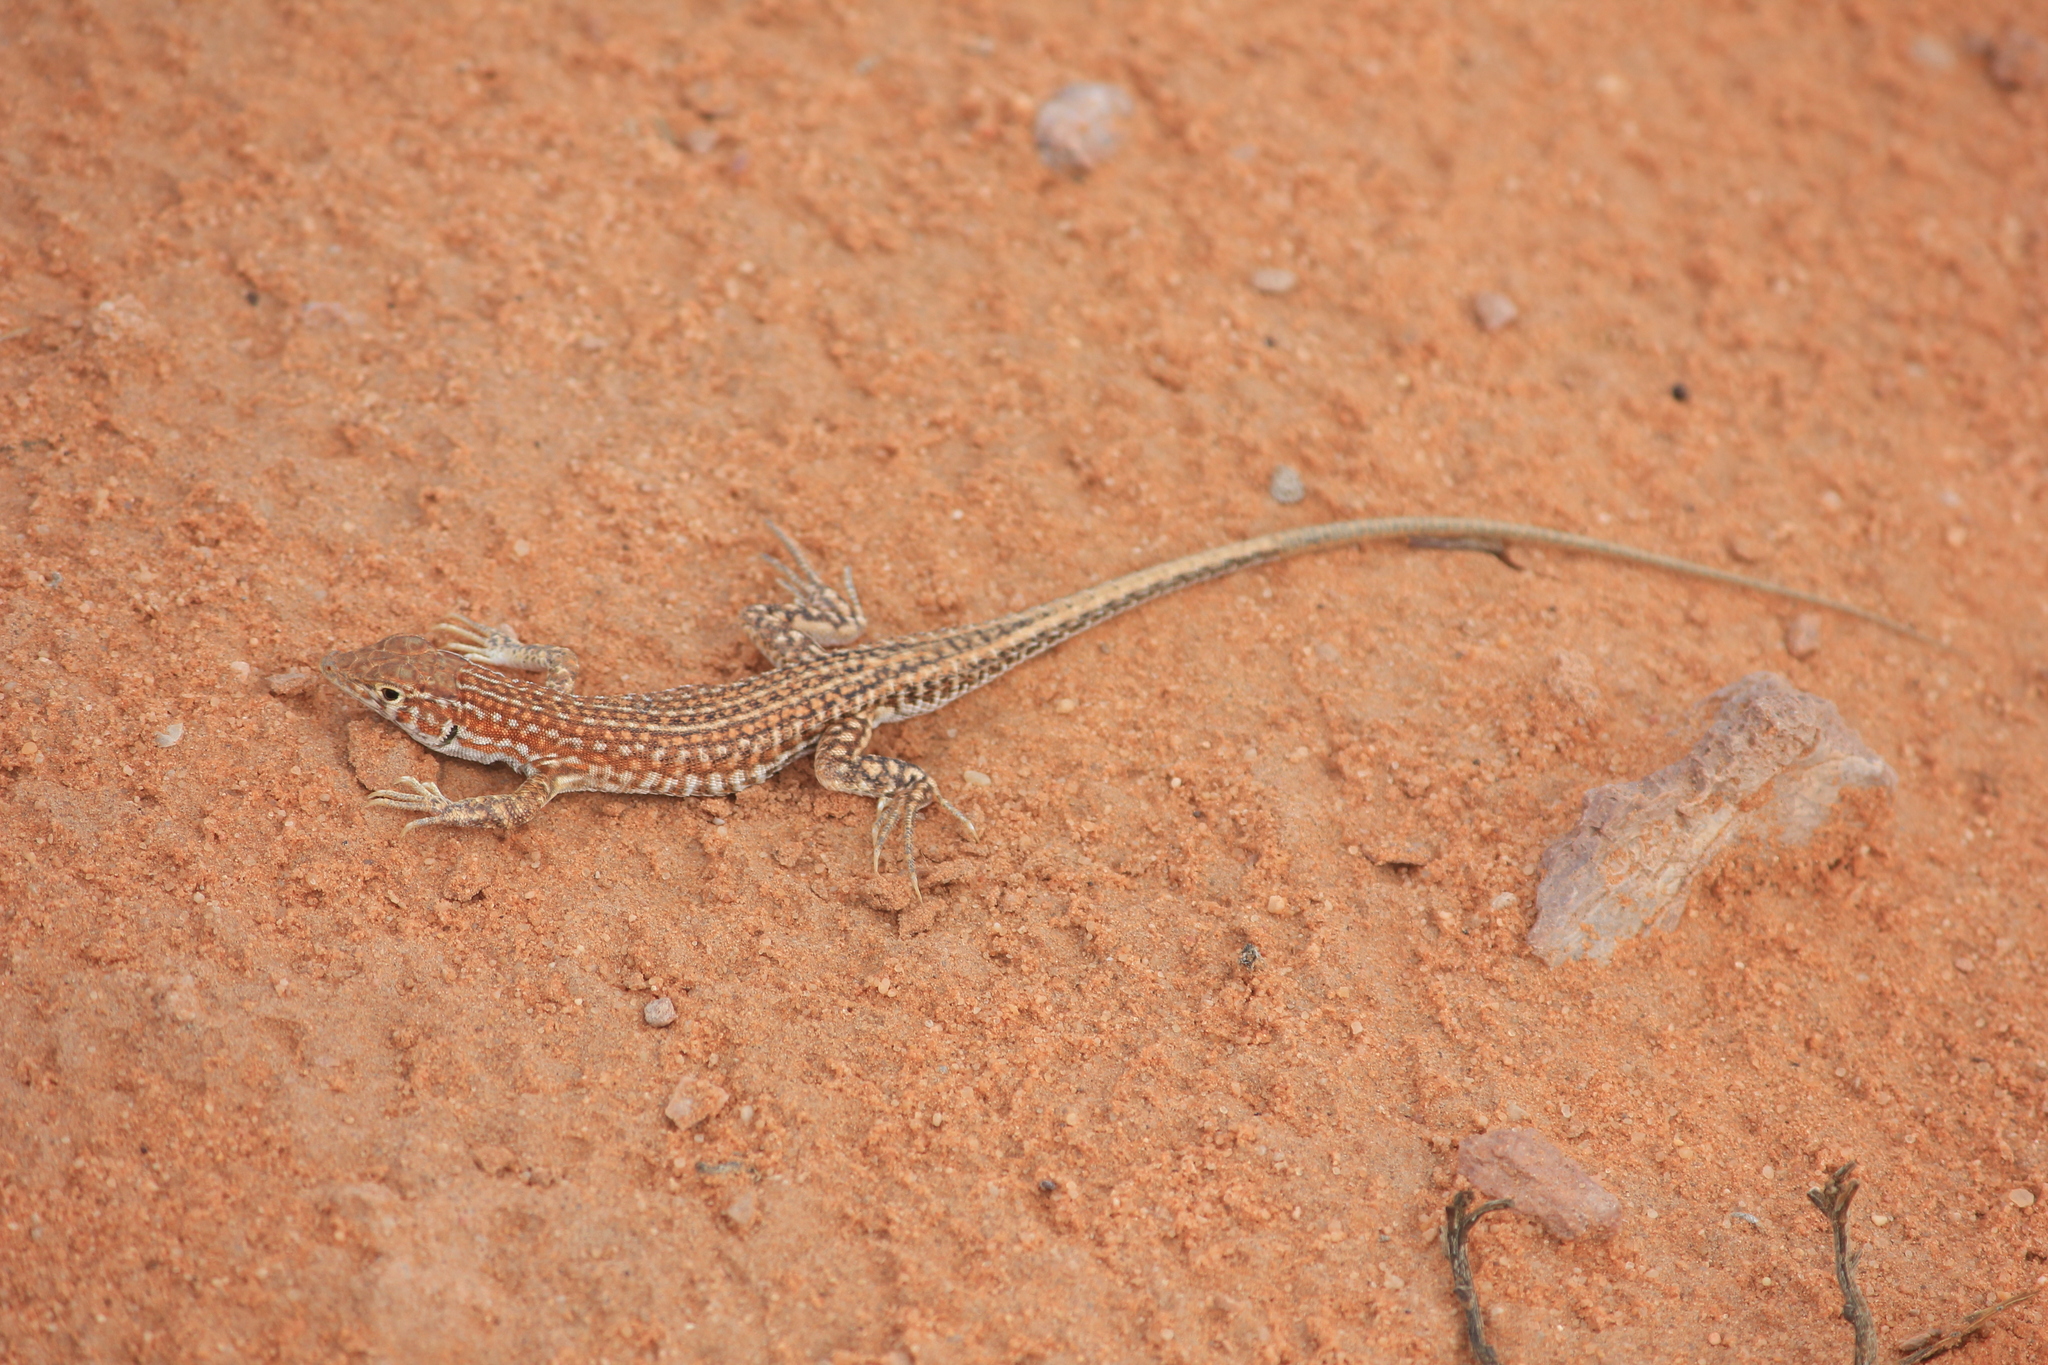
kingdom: Animalia
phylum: Chordata
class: Squamata
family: Lacertidae
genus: Acanthodactylus
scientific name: Acanthodactylus opheodurus
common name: Arnold's fringe-fingered lizard
